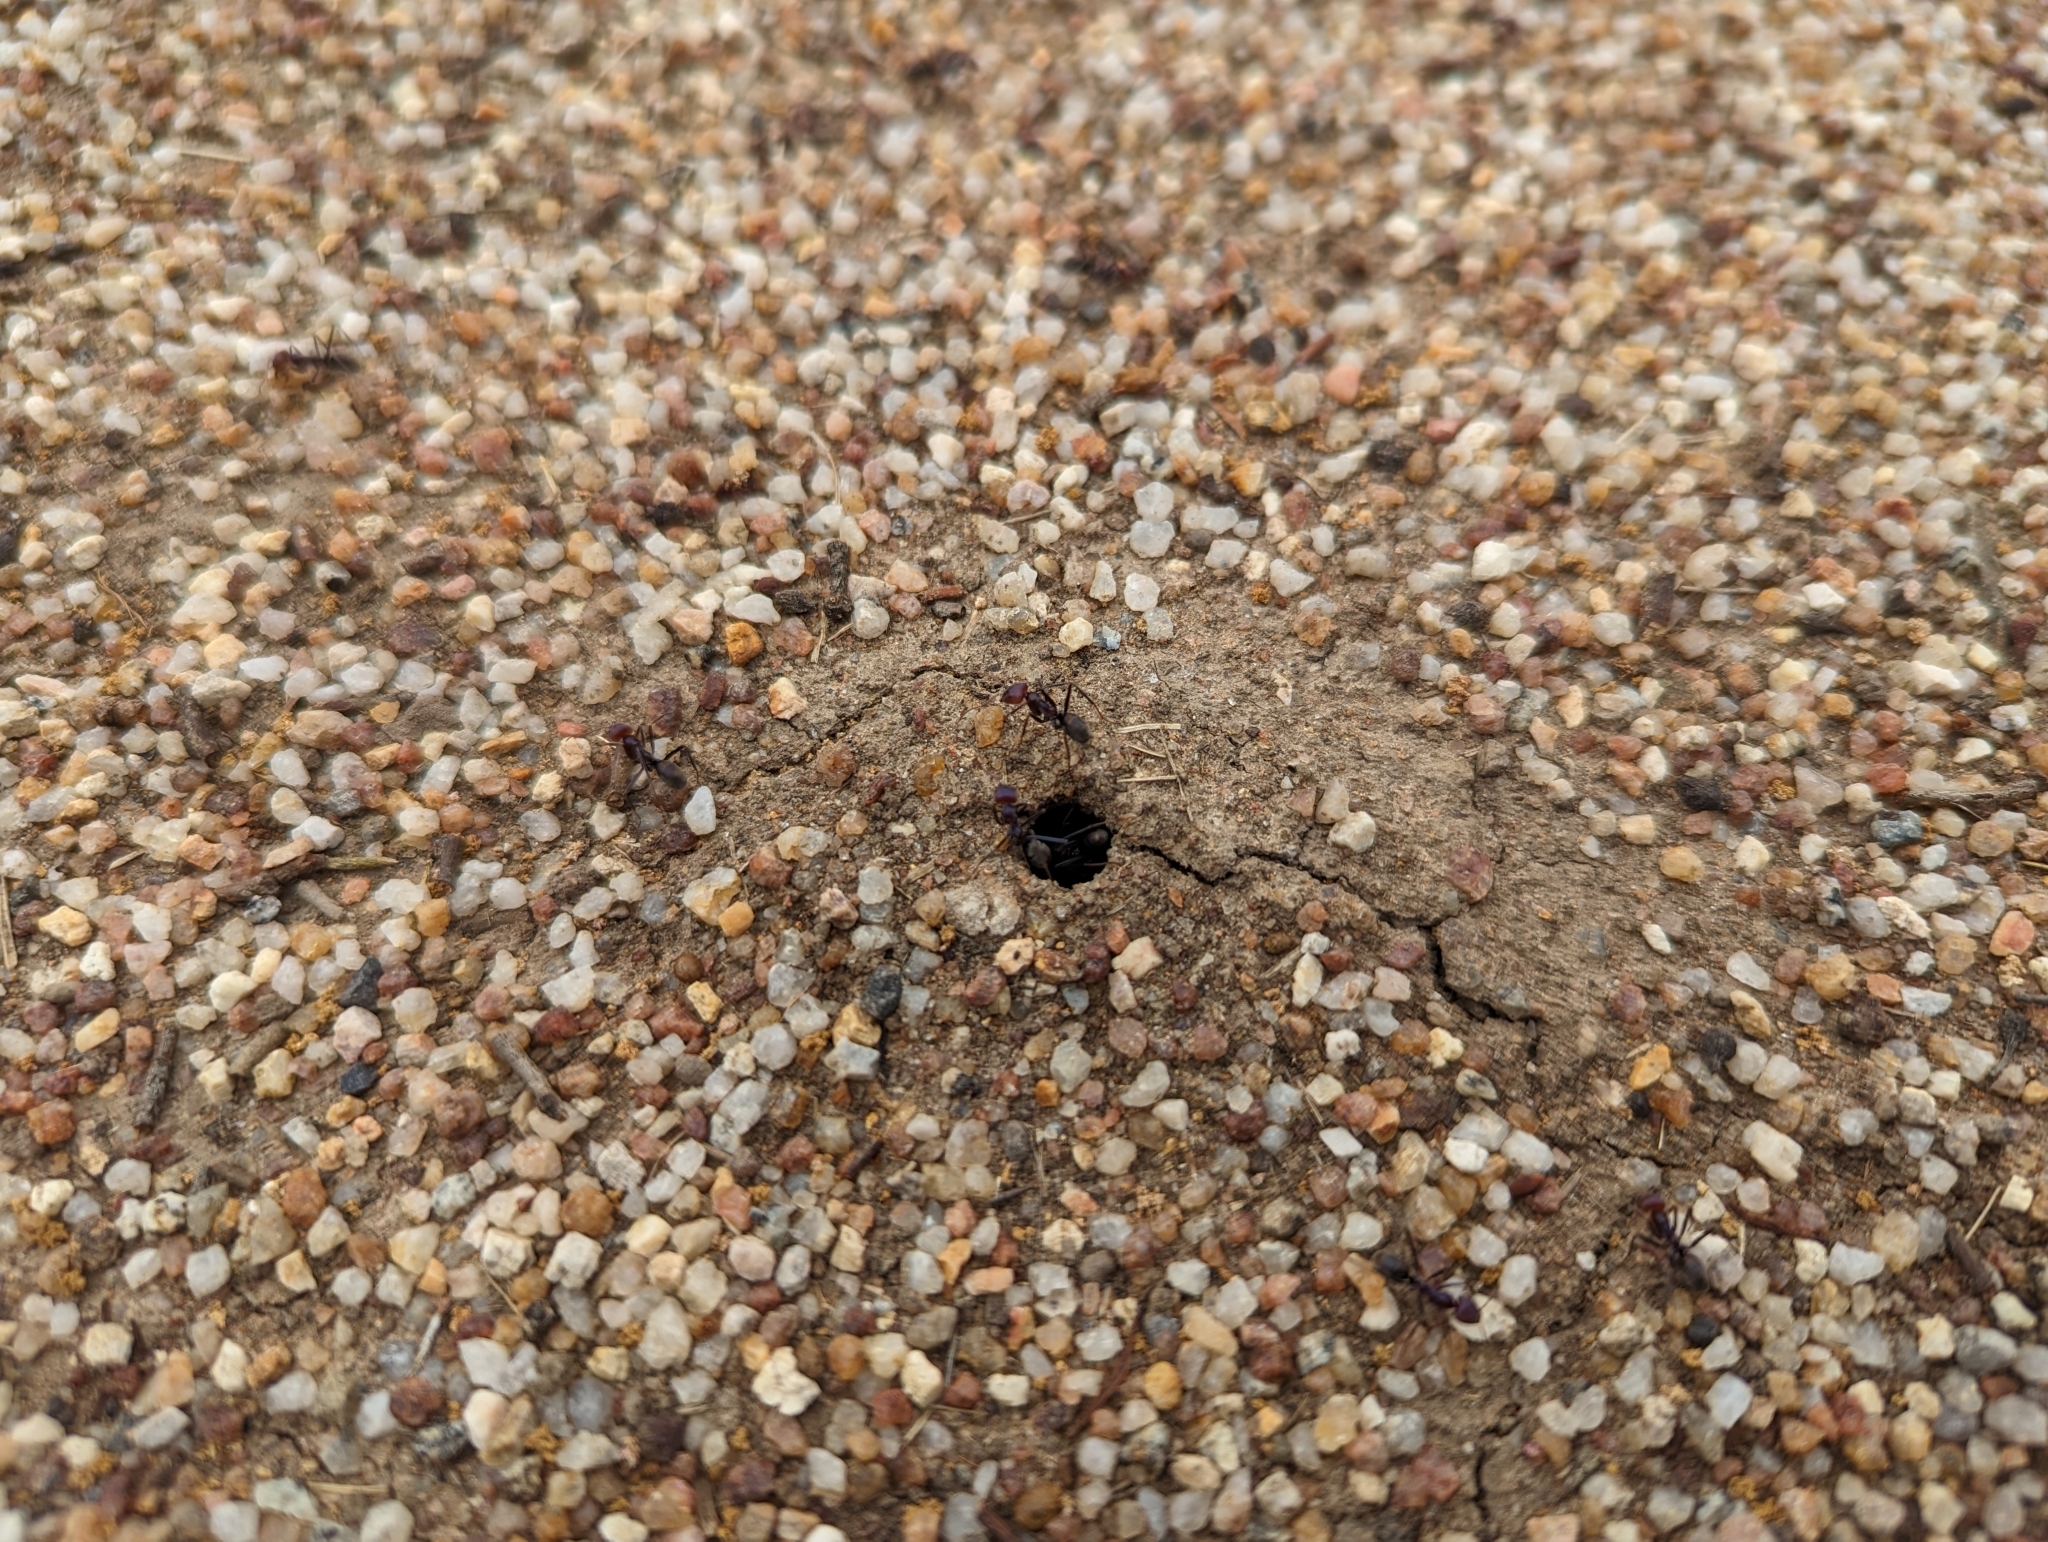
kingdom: Animalia
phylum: Arthropoda
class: Insecta
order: Hymenoptera
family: Formicidae
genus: Iridomyrmex
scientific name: Iridomyrmex purpureus
